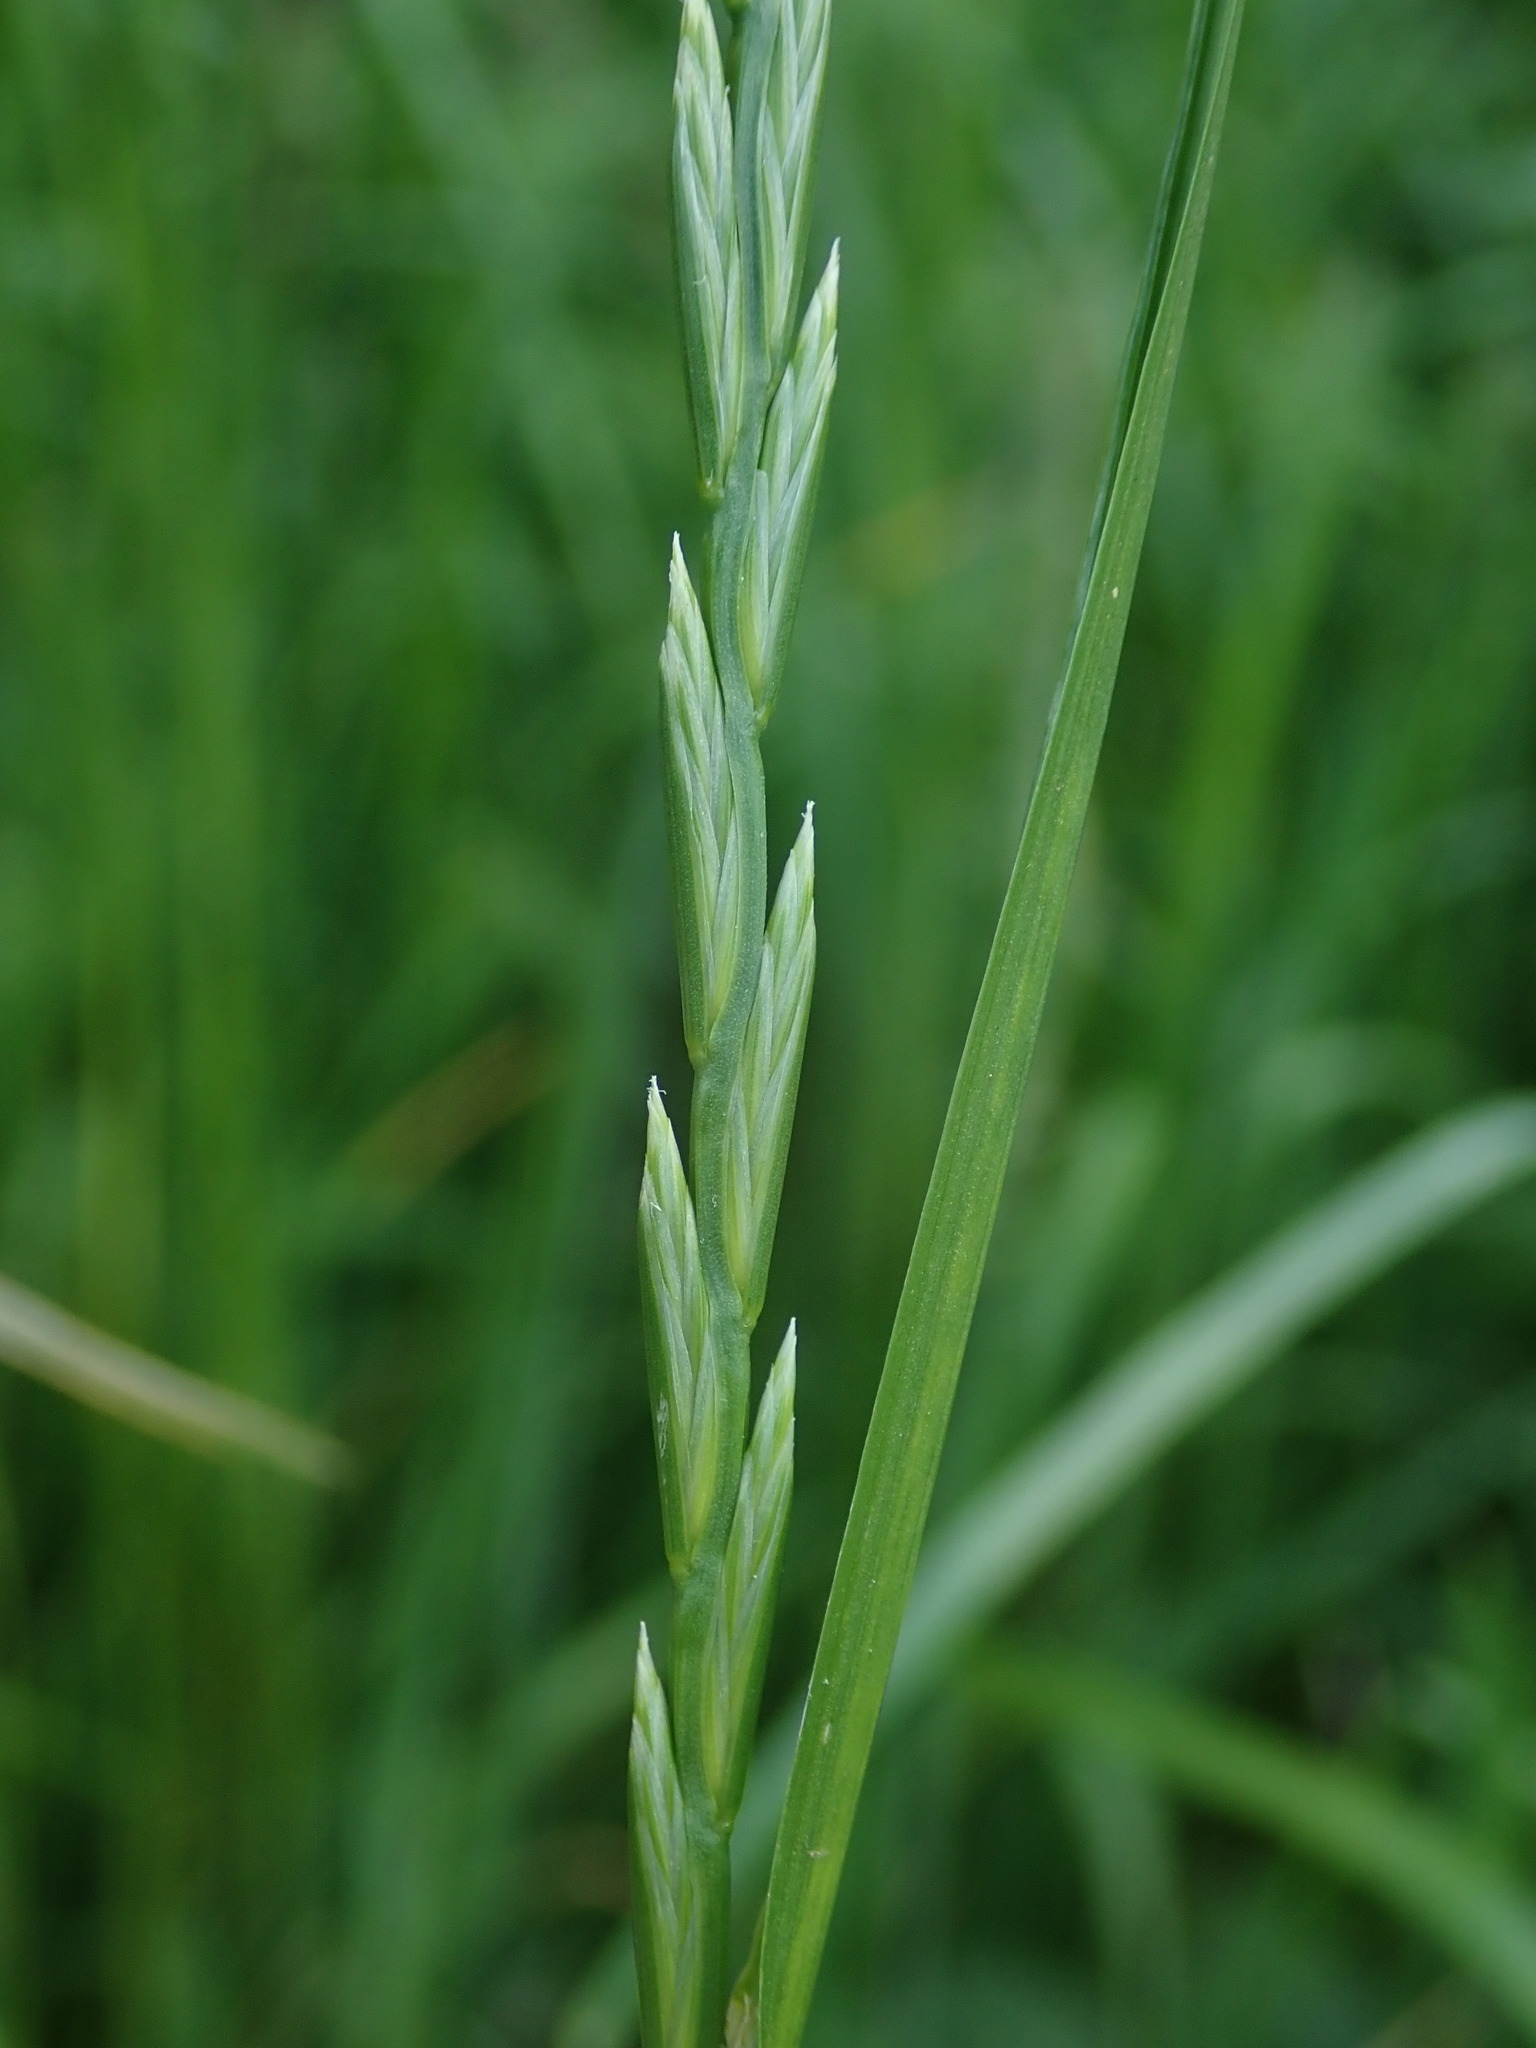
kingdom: Plantae
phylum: Tracheophyta
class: Liliopsida
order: Poales
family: Poaceae
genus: Lolium
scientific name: Lolium perenne
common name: Perennial ryegrass
